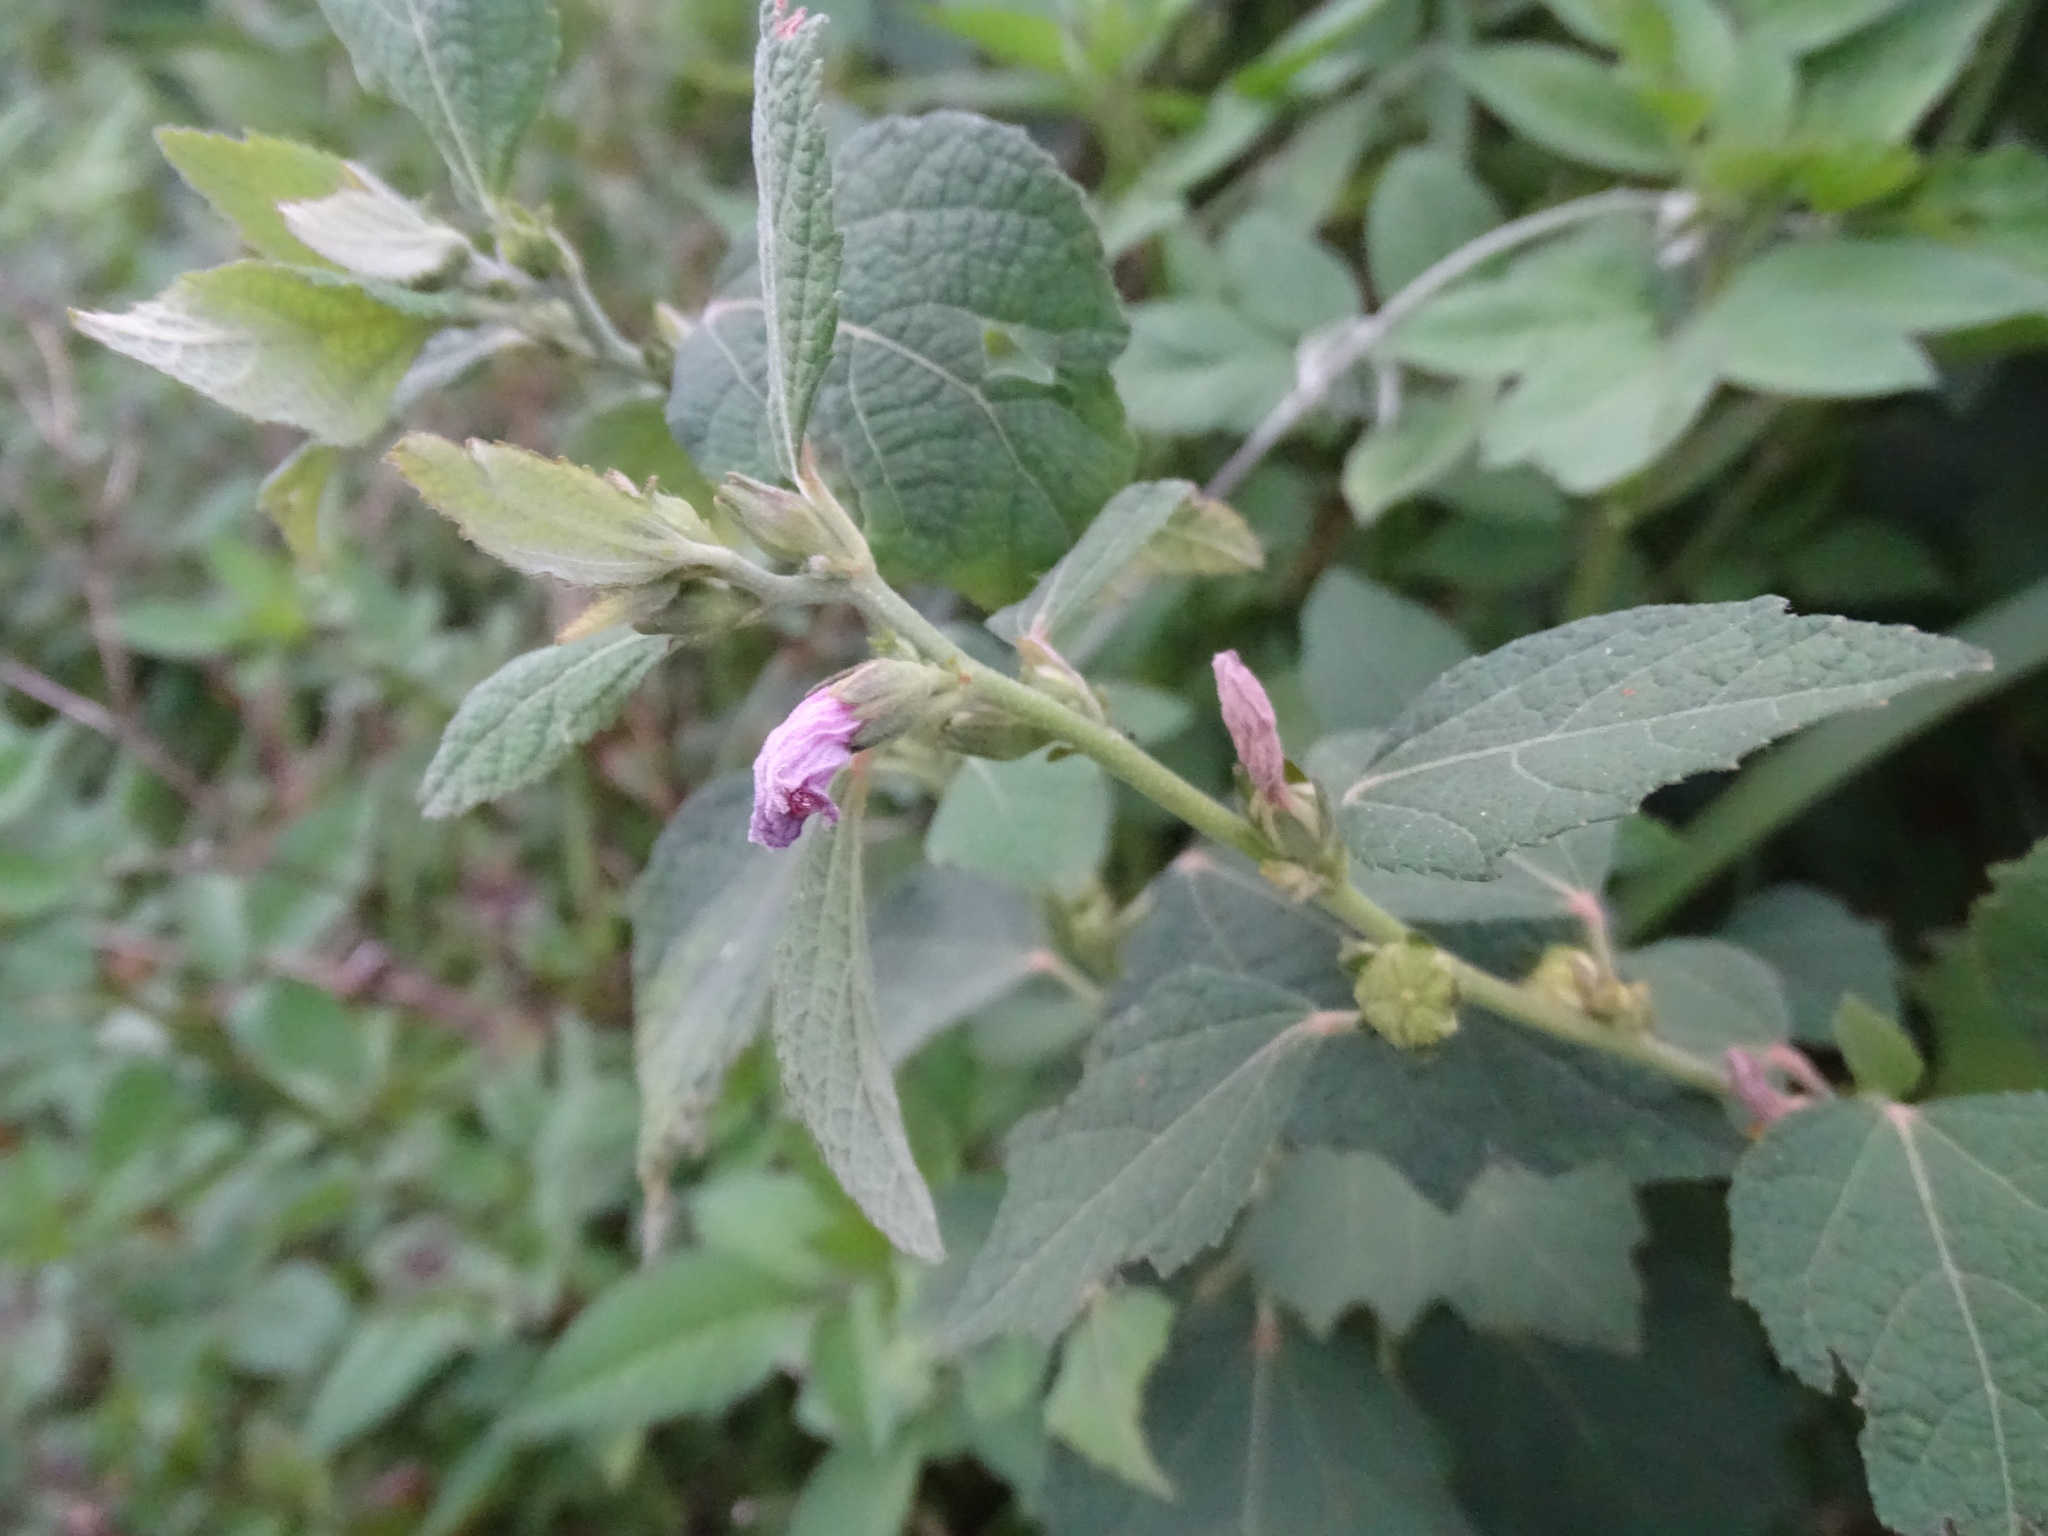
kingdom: Plantae
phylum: Tracheophyta
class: Magnoliopsida
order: Malvales
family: Malvaceae
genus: Urena
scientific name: Urena lobata
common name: Caesarweed
